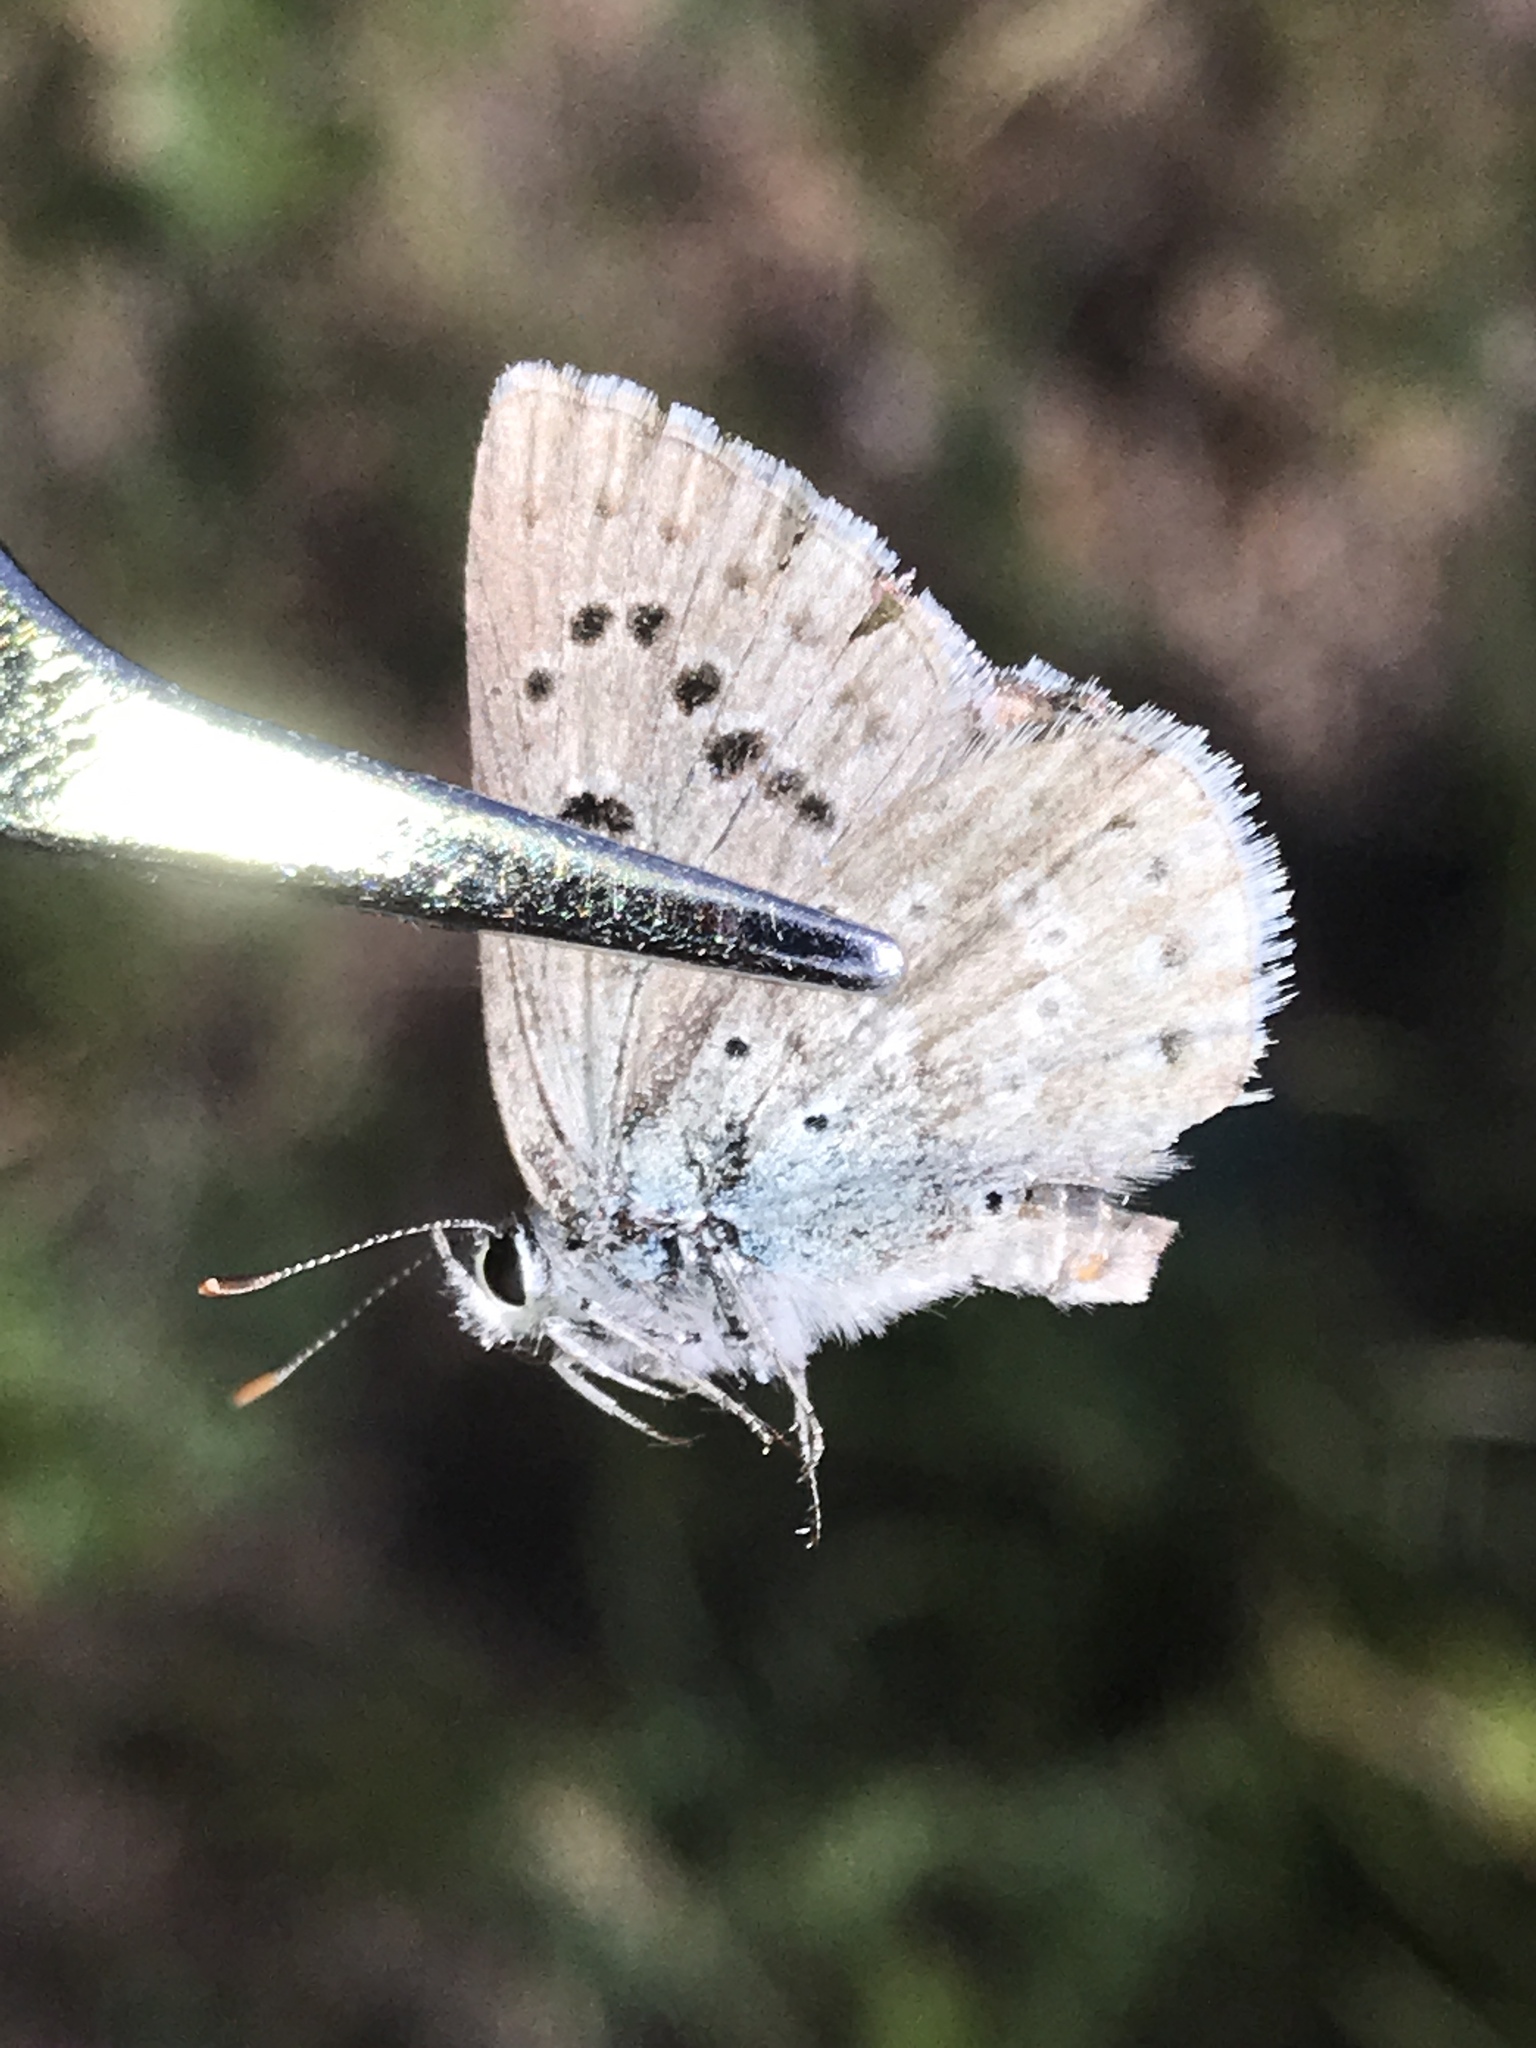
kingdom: Animalia
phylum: Arthropoda
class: Insecta
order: Lepidoptera
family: Lycaenidae
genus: Icaricia
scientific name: Icaricia icarioides
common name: Boisduval's blue
